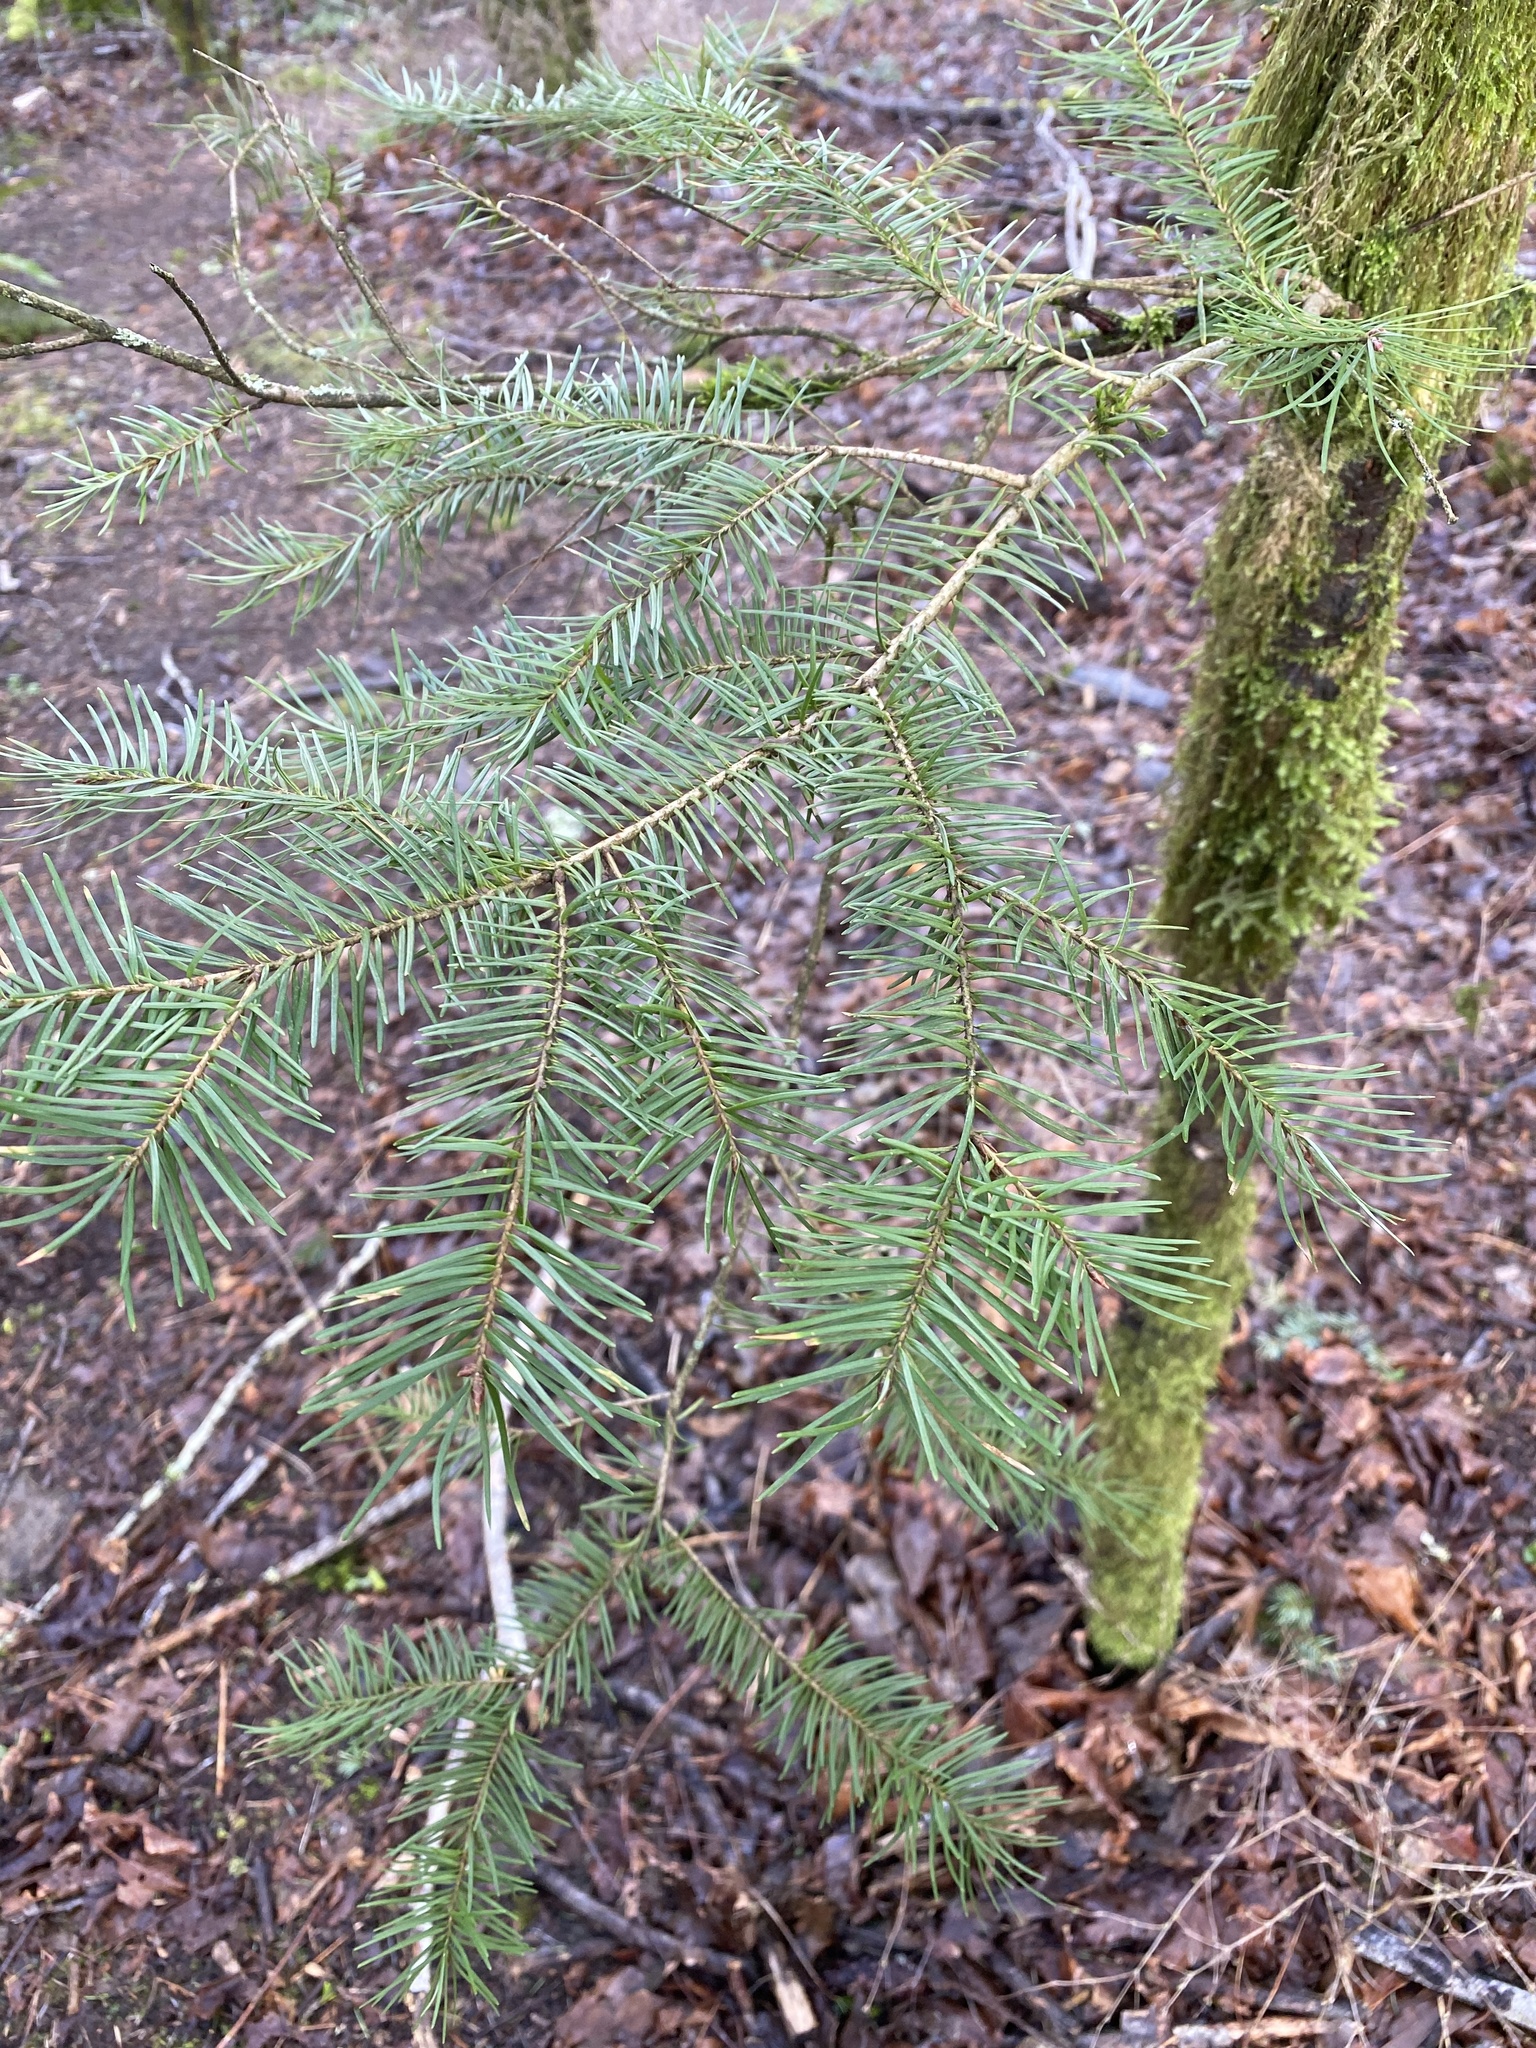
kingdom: Plantae
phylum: Tracheophyta
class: Pinopsida
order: Pinales
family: Pinaceae
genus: Pseudotsuga
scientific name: Pseudotsuga menziesii
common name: Douglas fir
